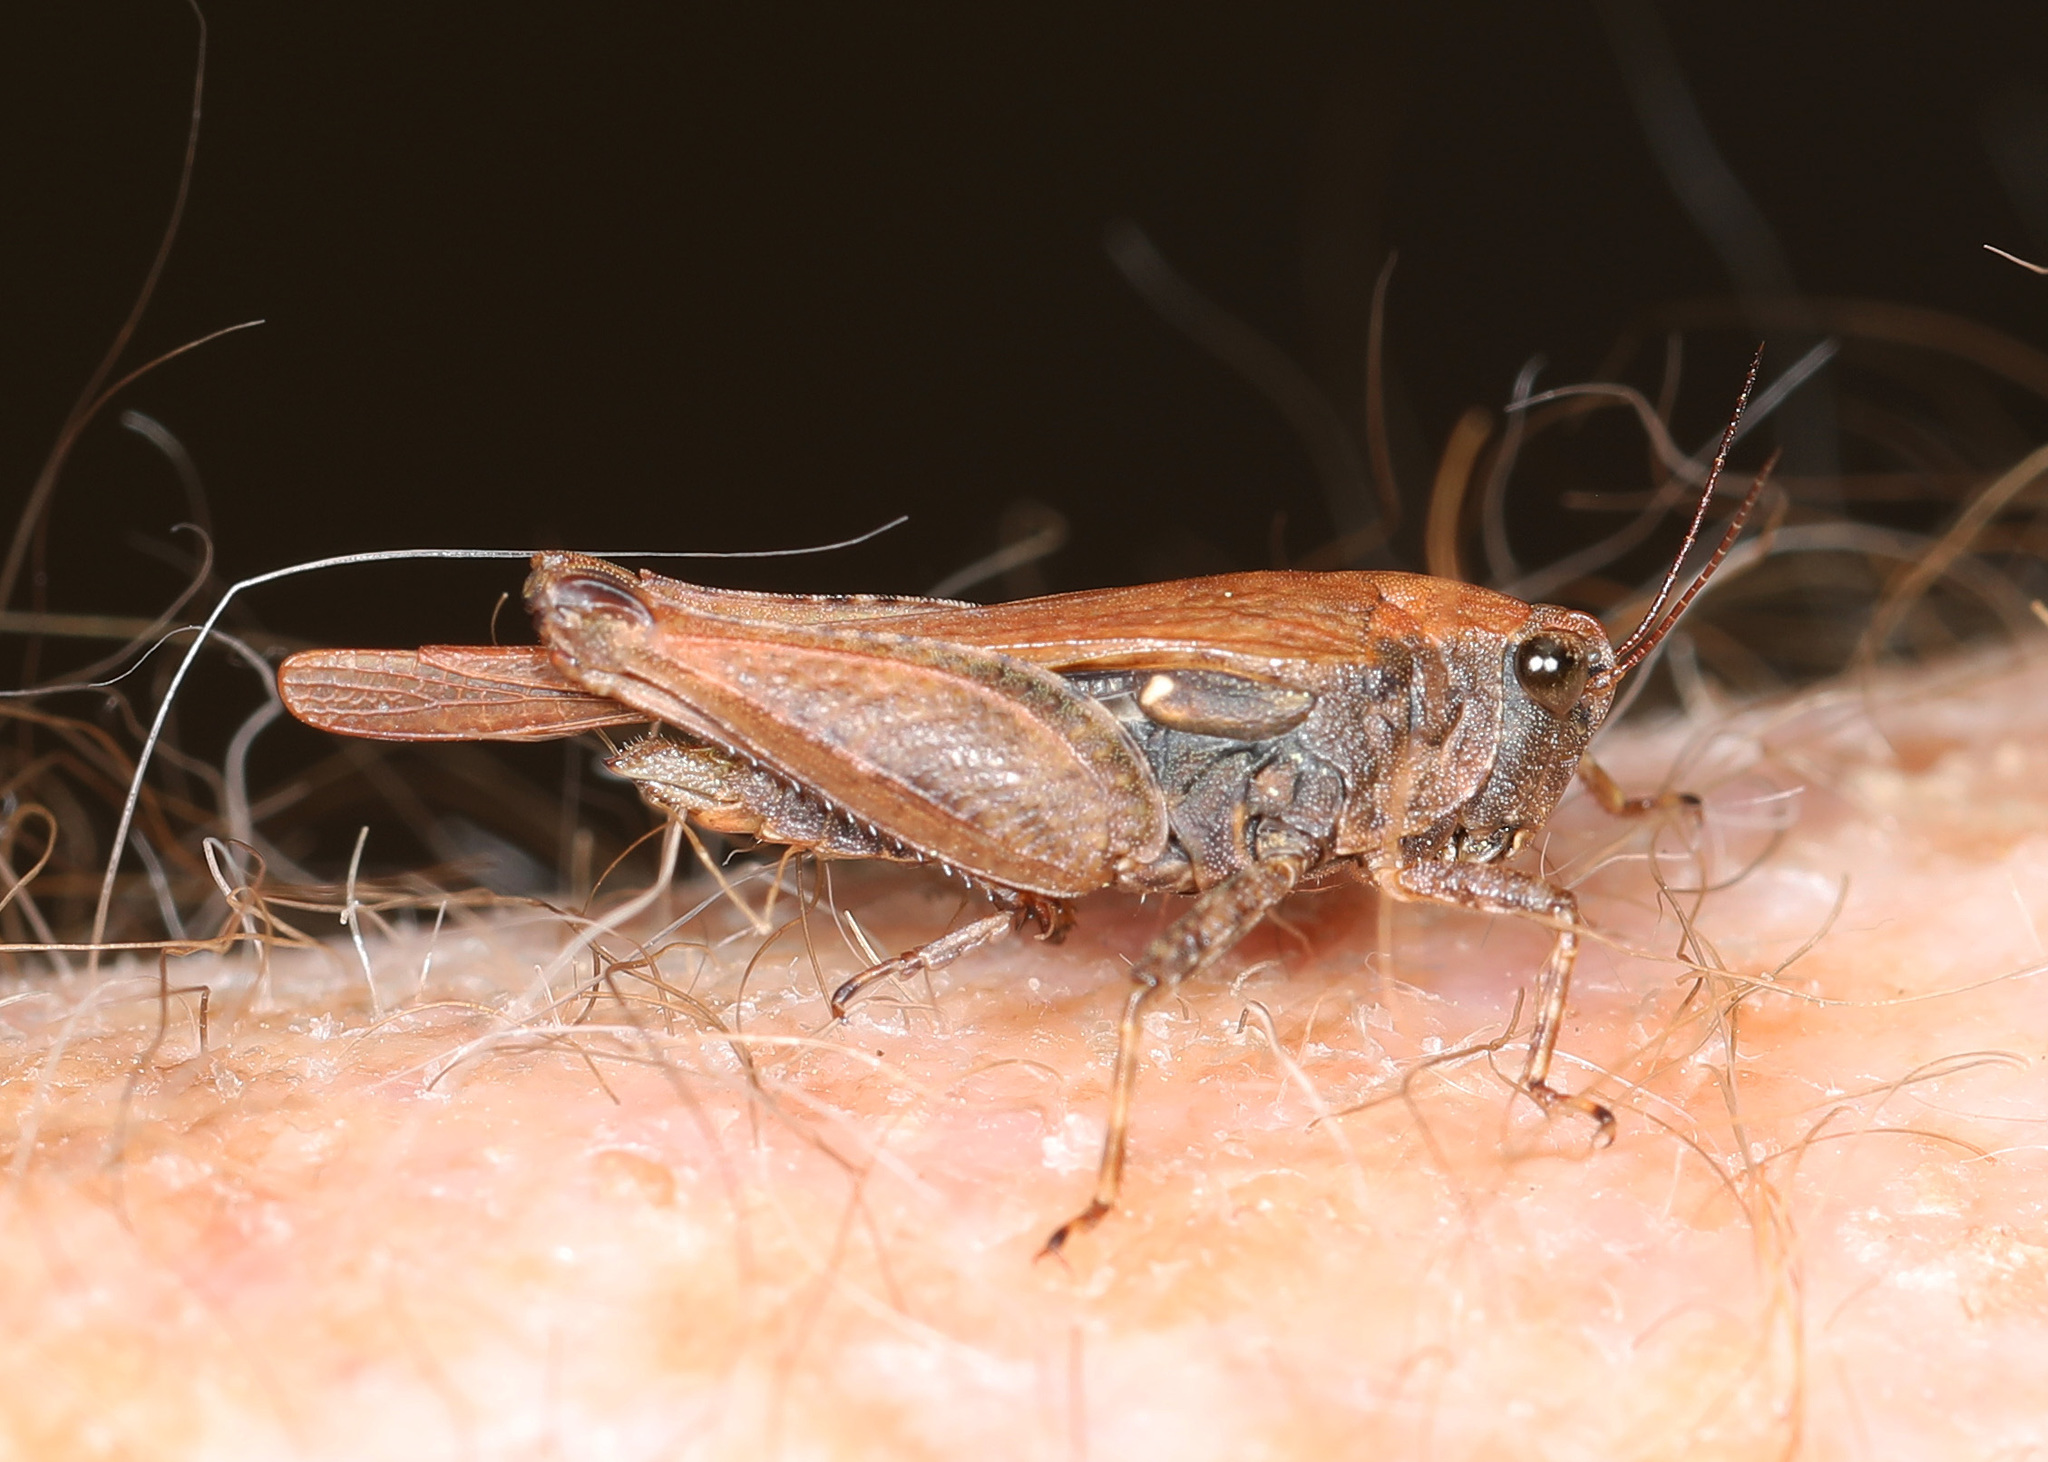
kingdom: Animalia
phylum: Arthropoda
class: Insecta
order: Orthoptera
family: Tetrigidae
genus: Tettigidea
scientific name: Tettigidea laterale
